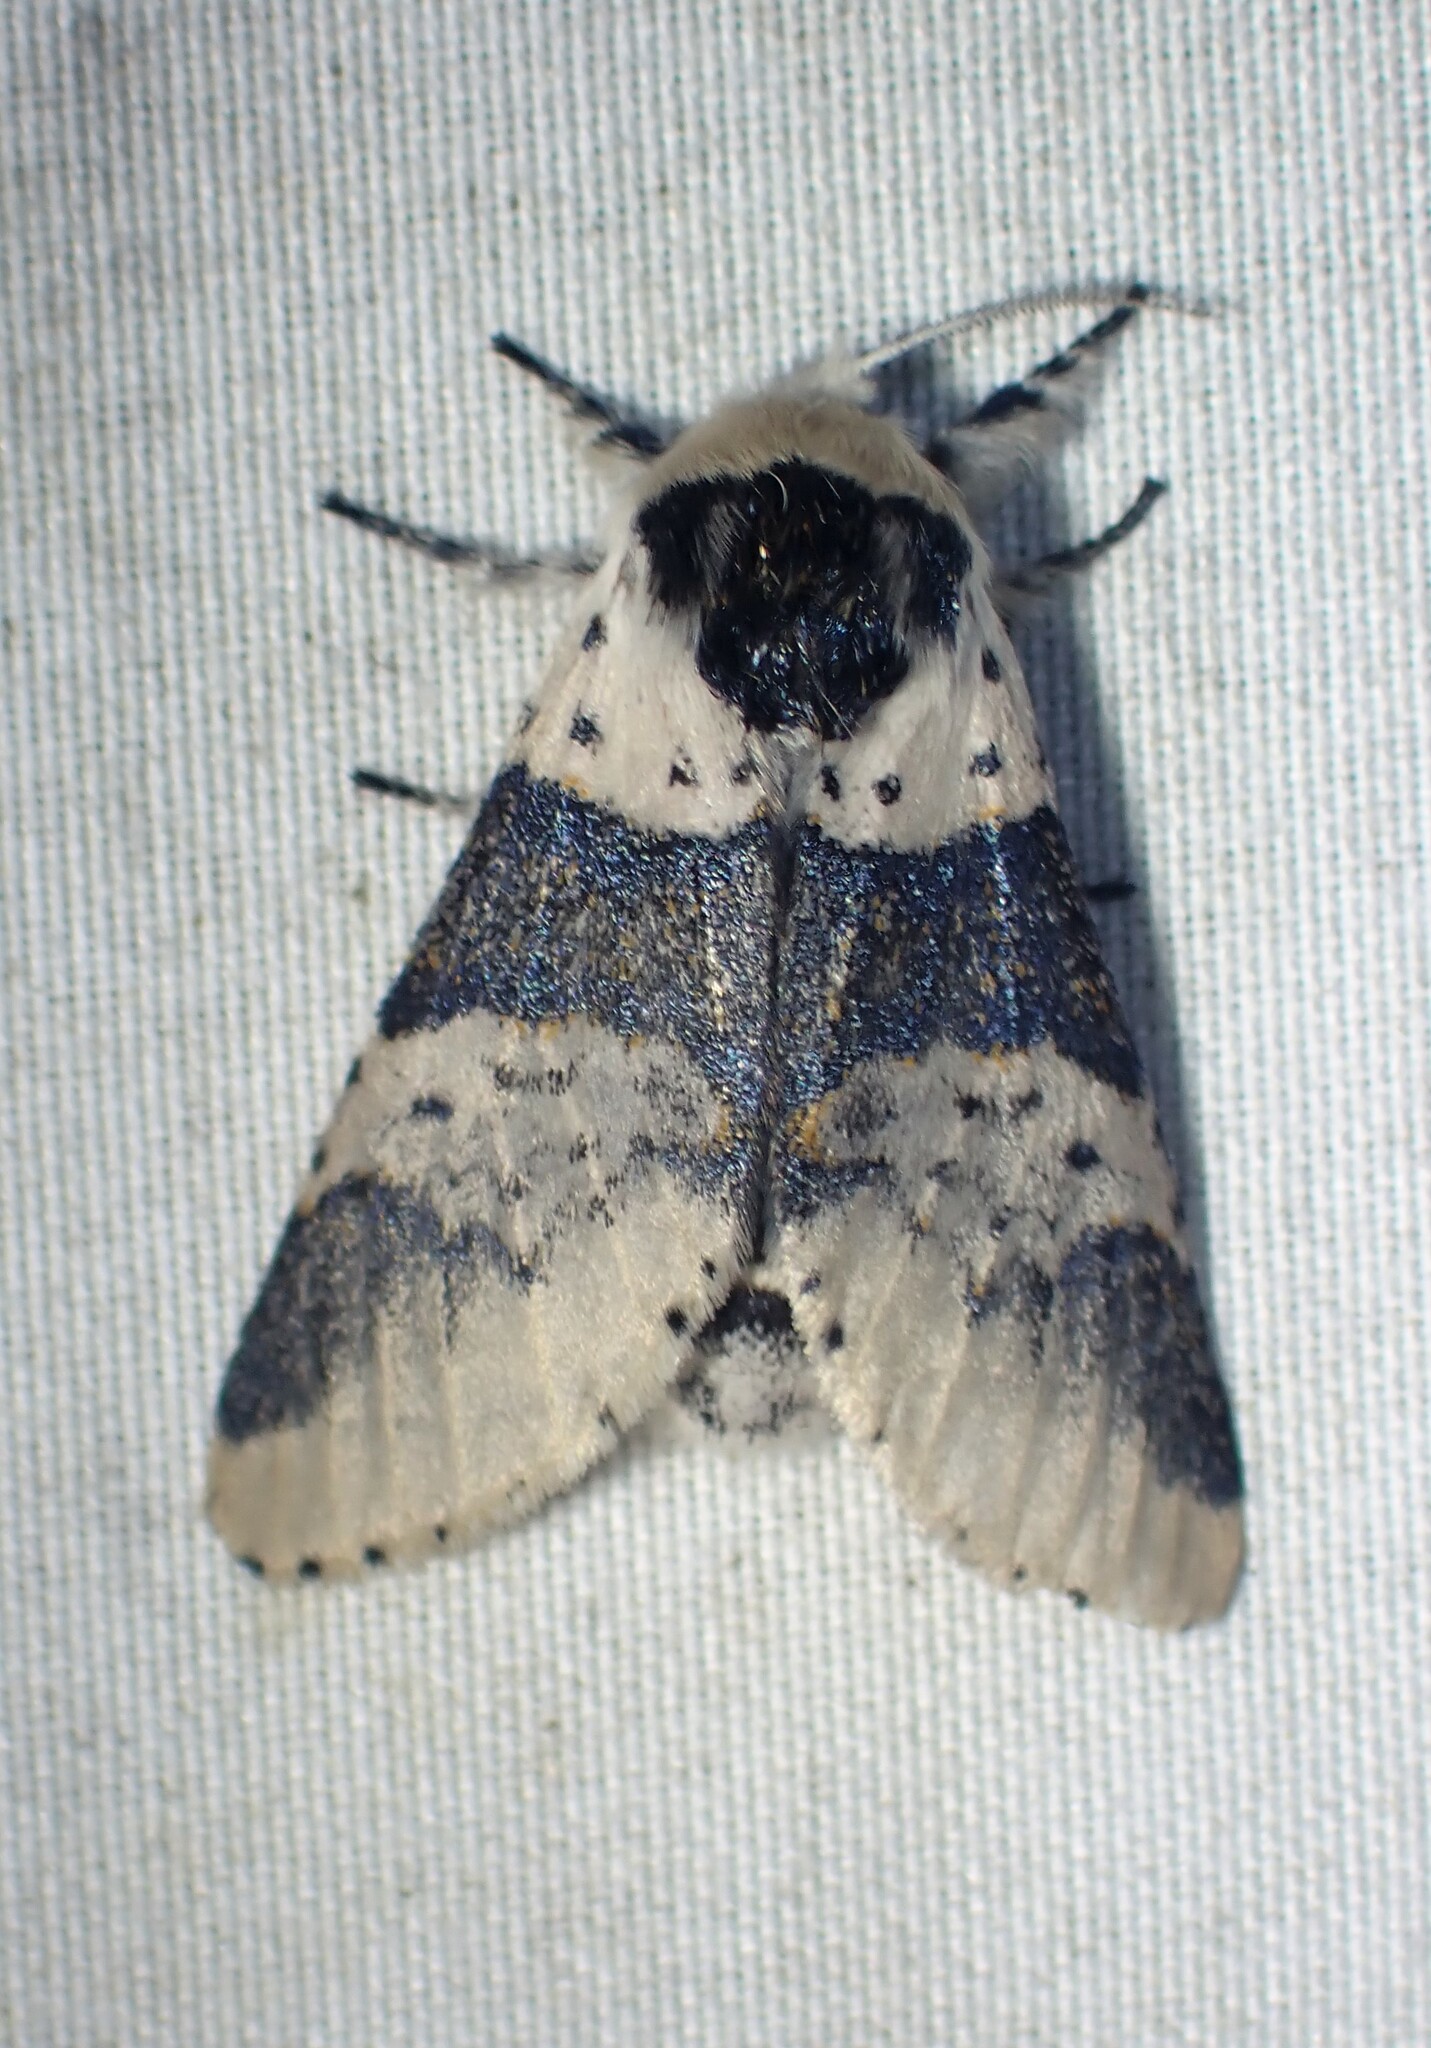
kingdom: Animalia
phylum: Arthropoda
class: Insecta
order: Lepidoptera
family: Notodontidae
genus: Furcula
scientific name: Furcula modesta
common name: Modest furcula moth
